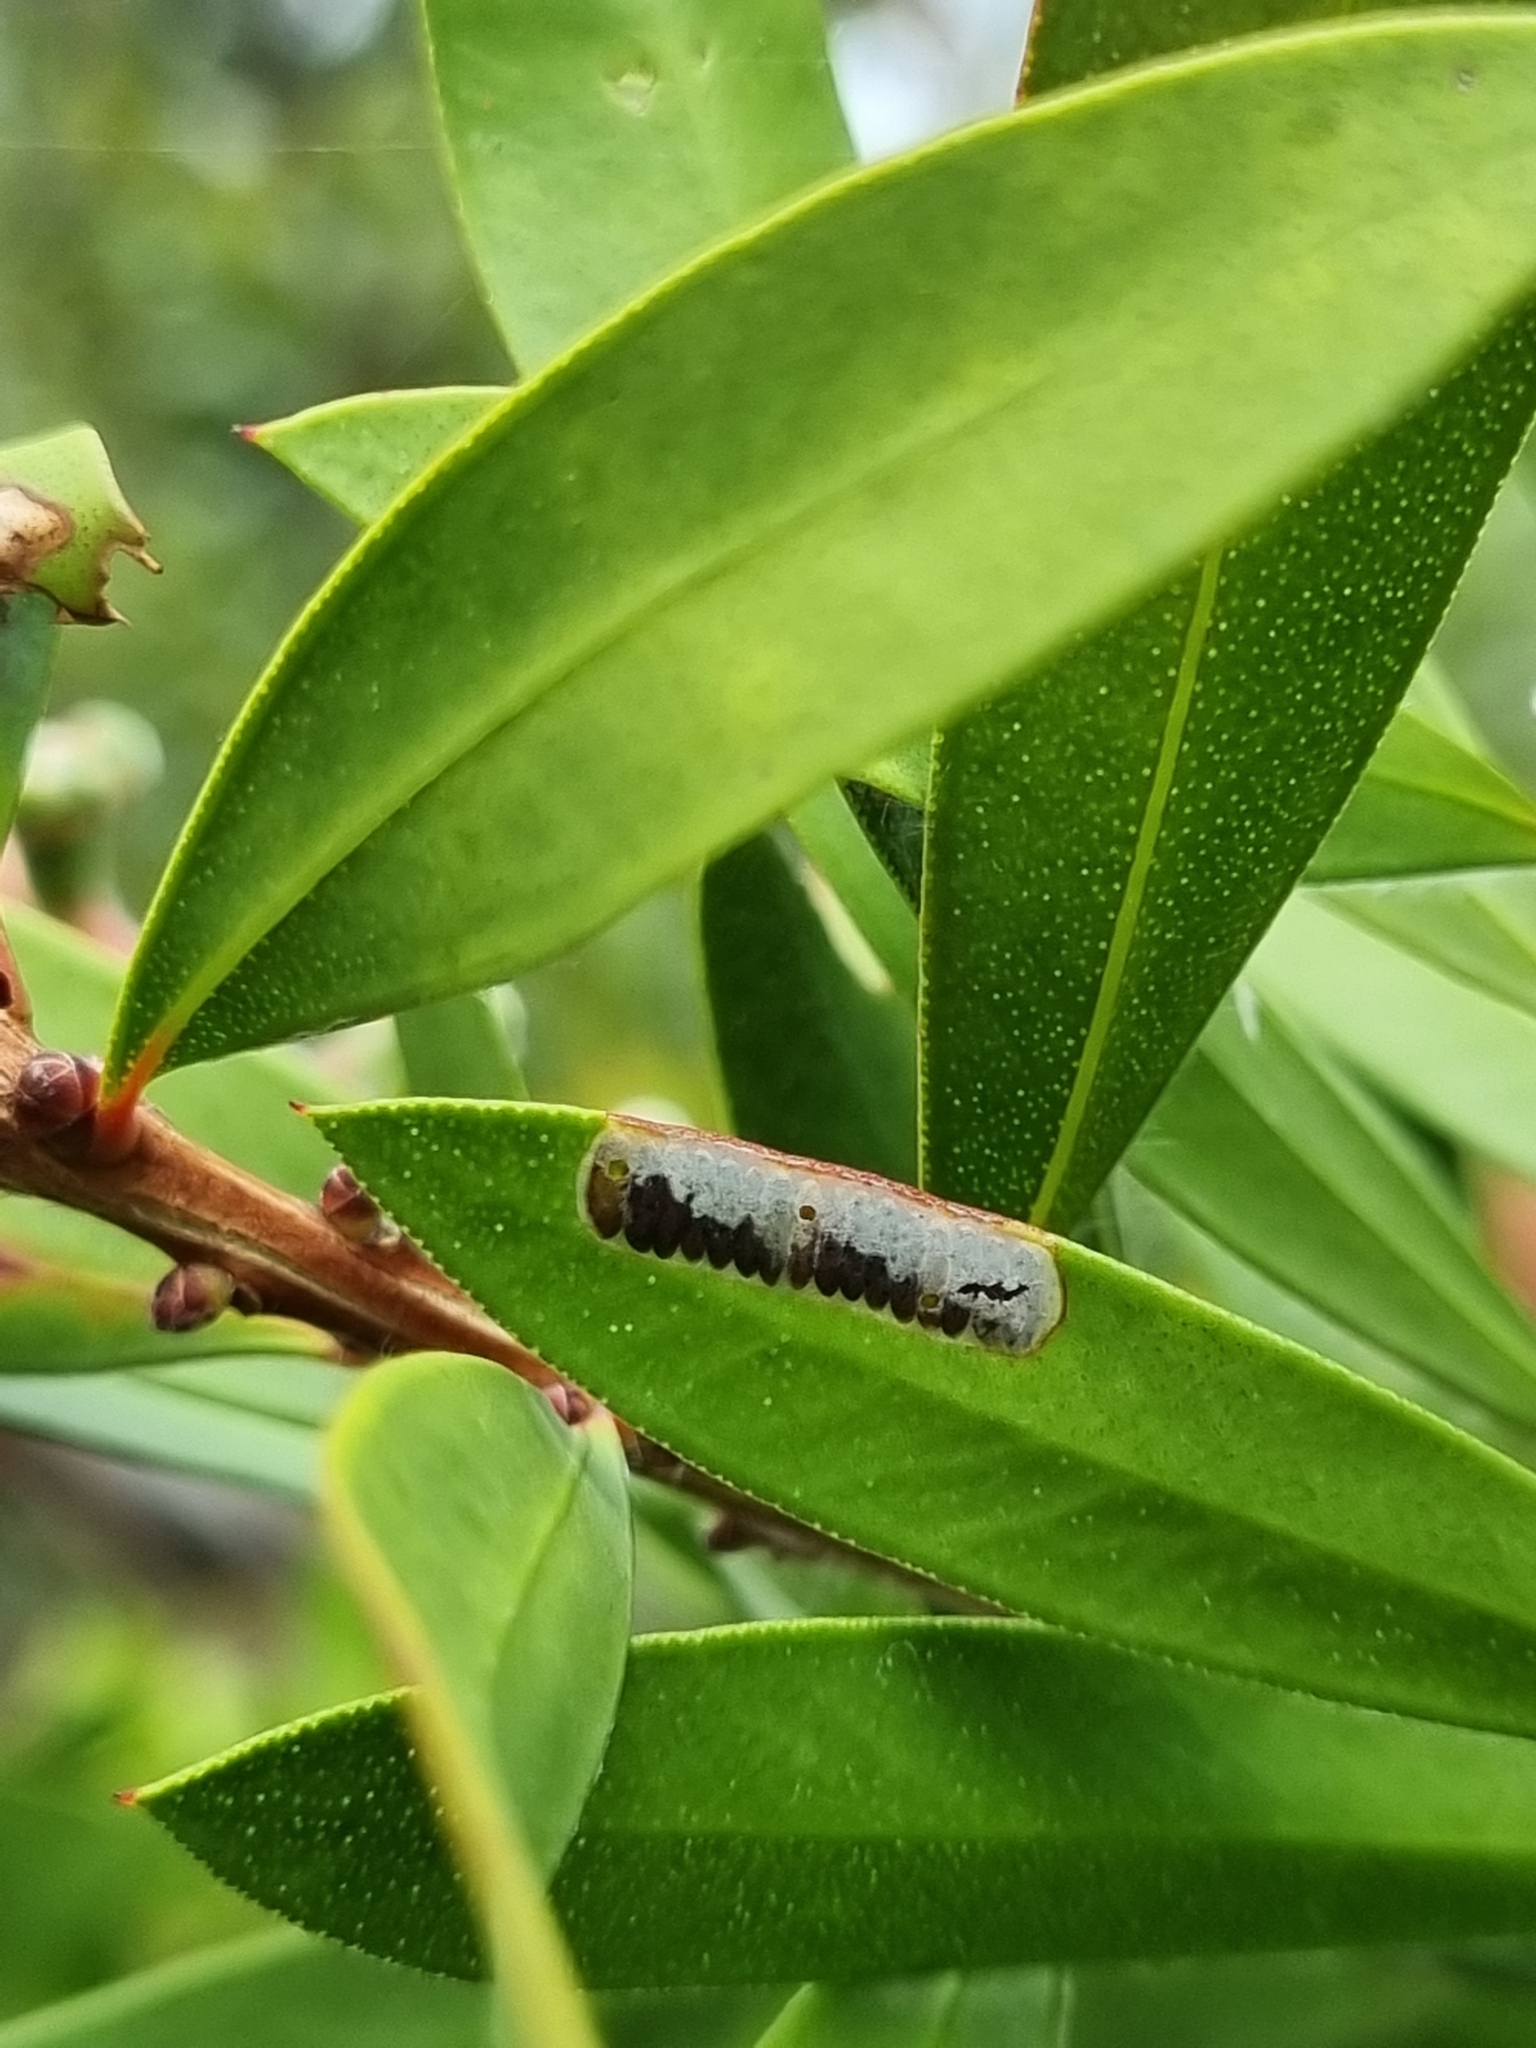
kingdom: Animalia
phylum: Arthropoda
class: Insecta
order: Hymenoptera
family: Pergidae
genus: Pterygophorus
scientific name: Pterygophorus
